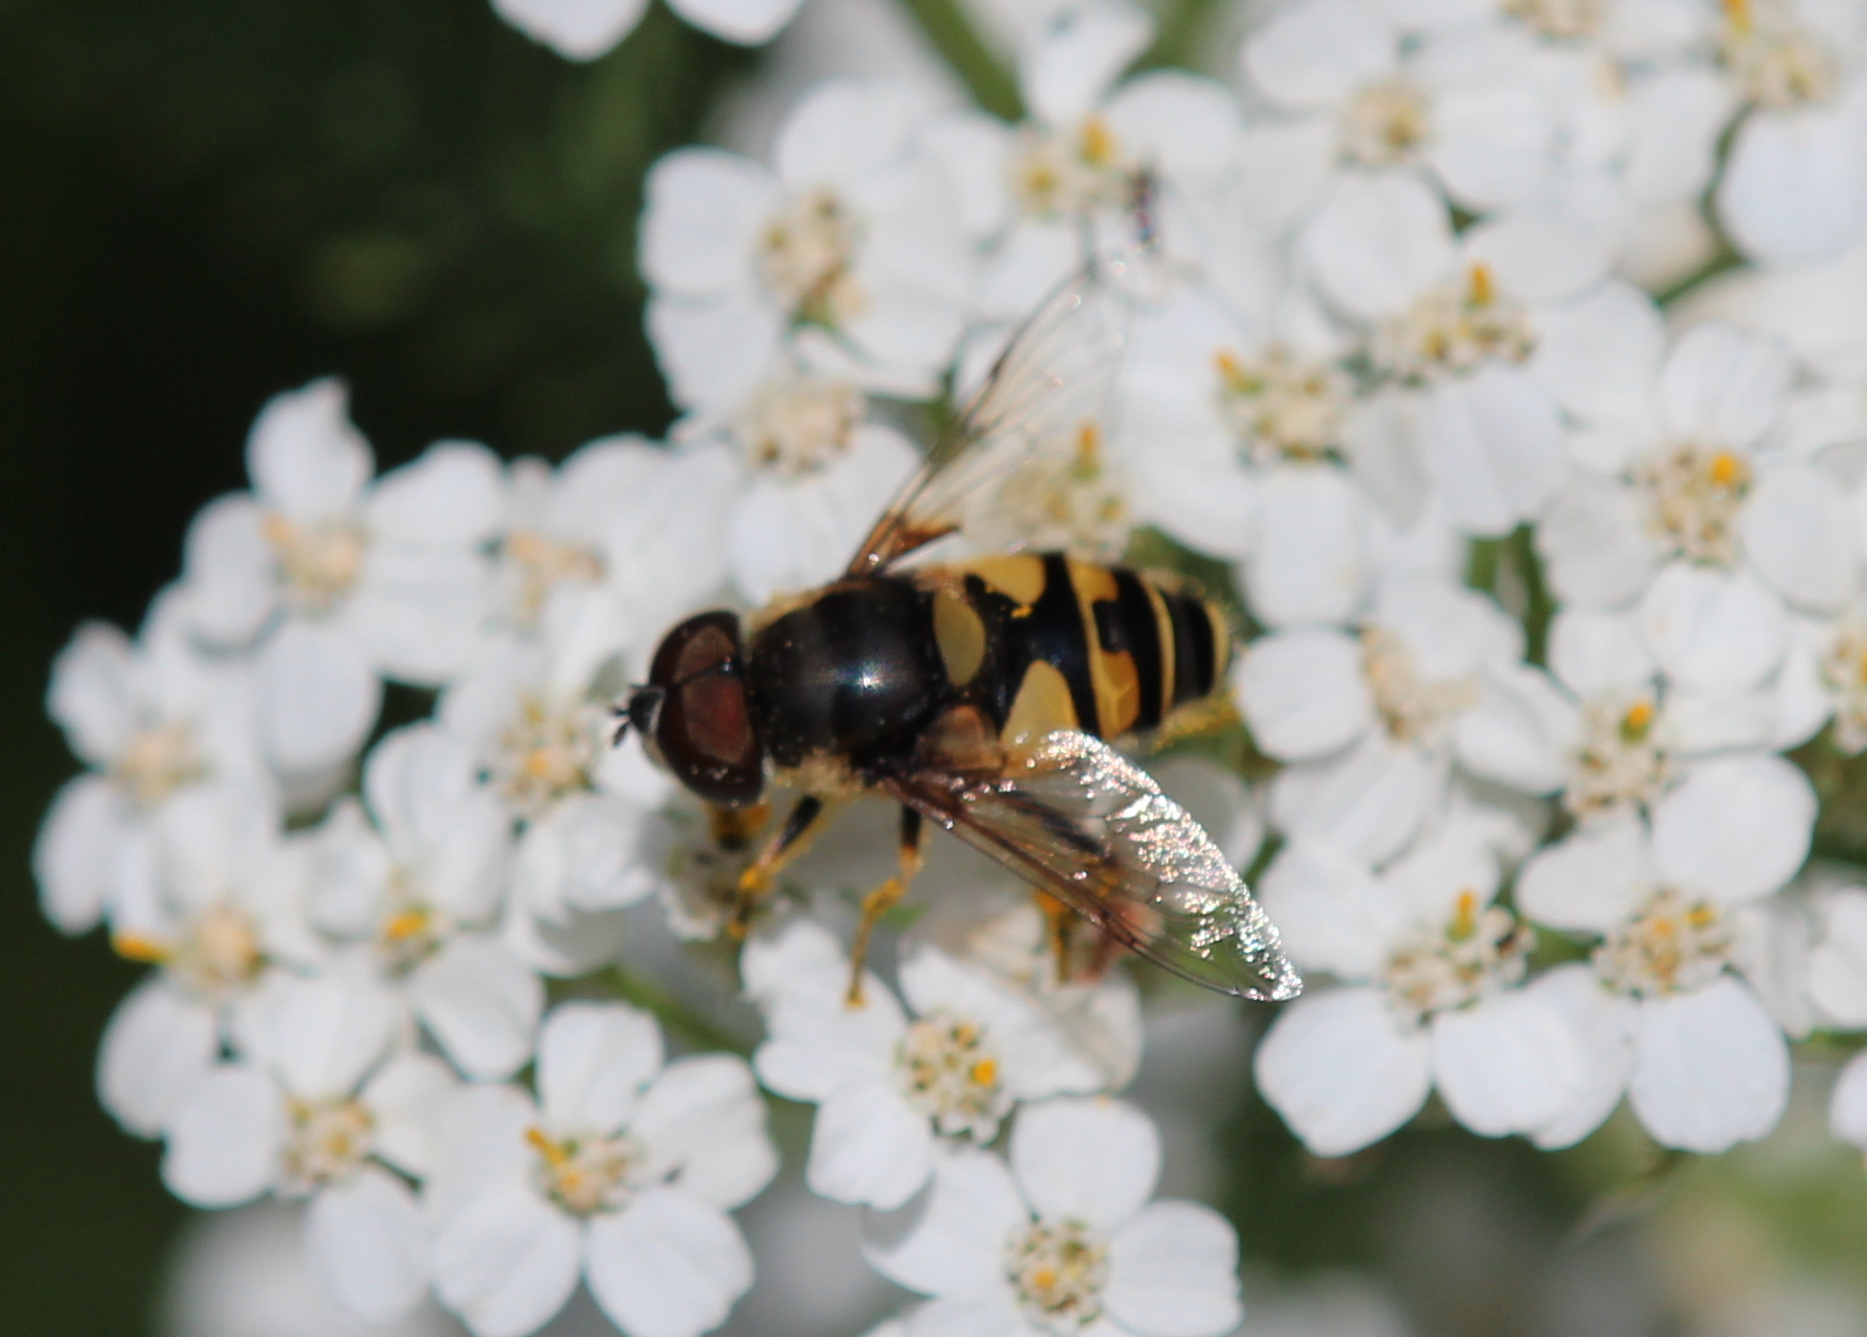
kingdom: Animalia
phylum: Arthropoda
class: Insecta
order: Diptera
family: Syrphidae
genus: Eristalis
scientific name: Eristalis transversa
